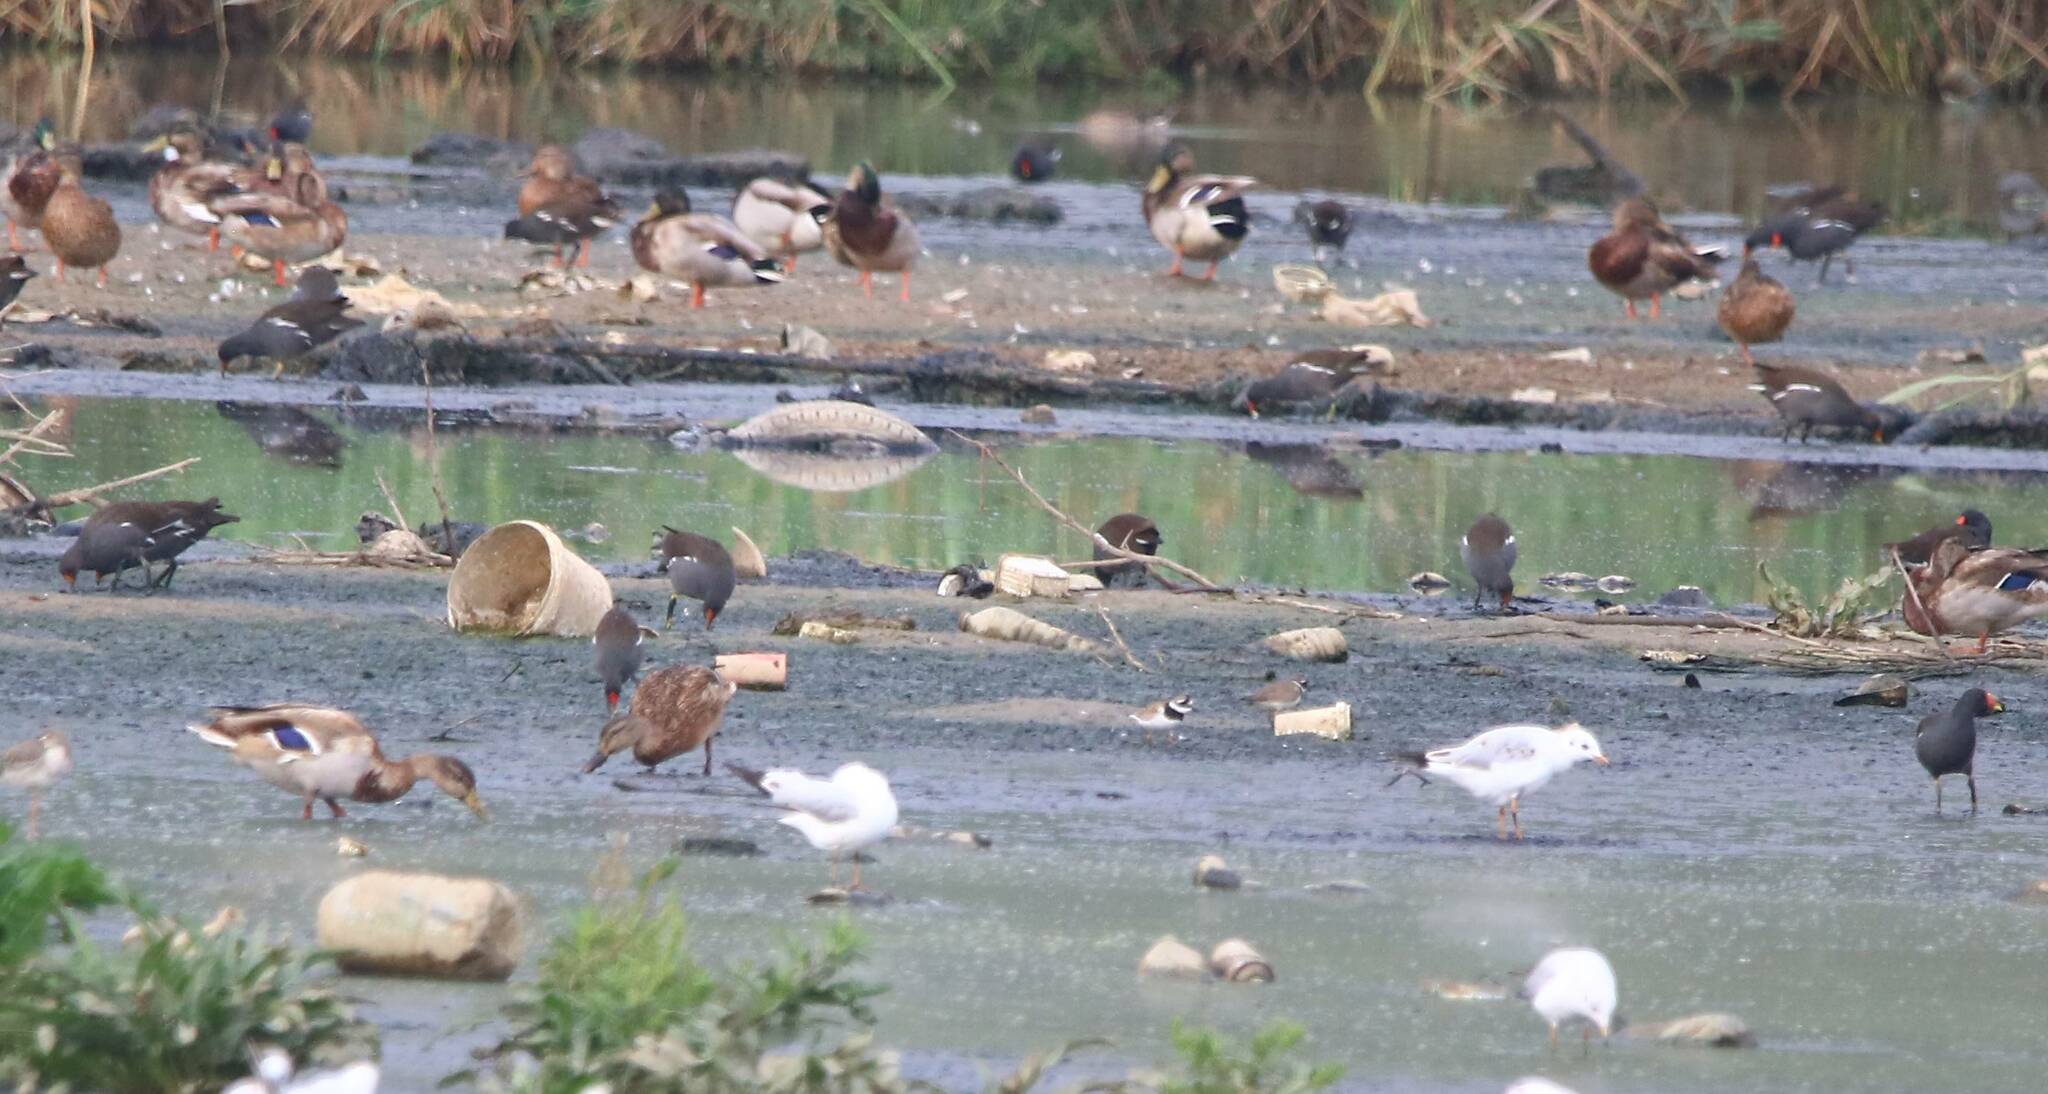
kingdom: Animalia
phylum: Chordata
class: Aves
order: Anseriformes
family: Anatidae
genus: Anas
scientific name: Anas platyrhynchos
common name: Mallard
